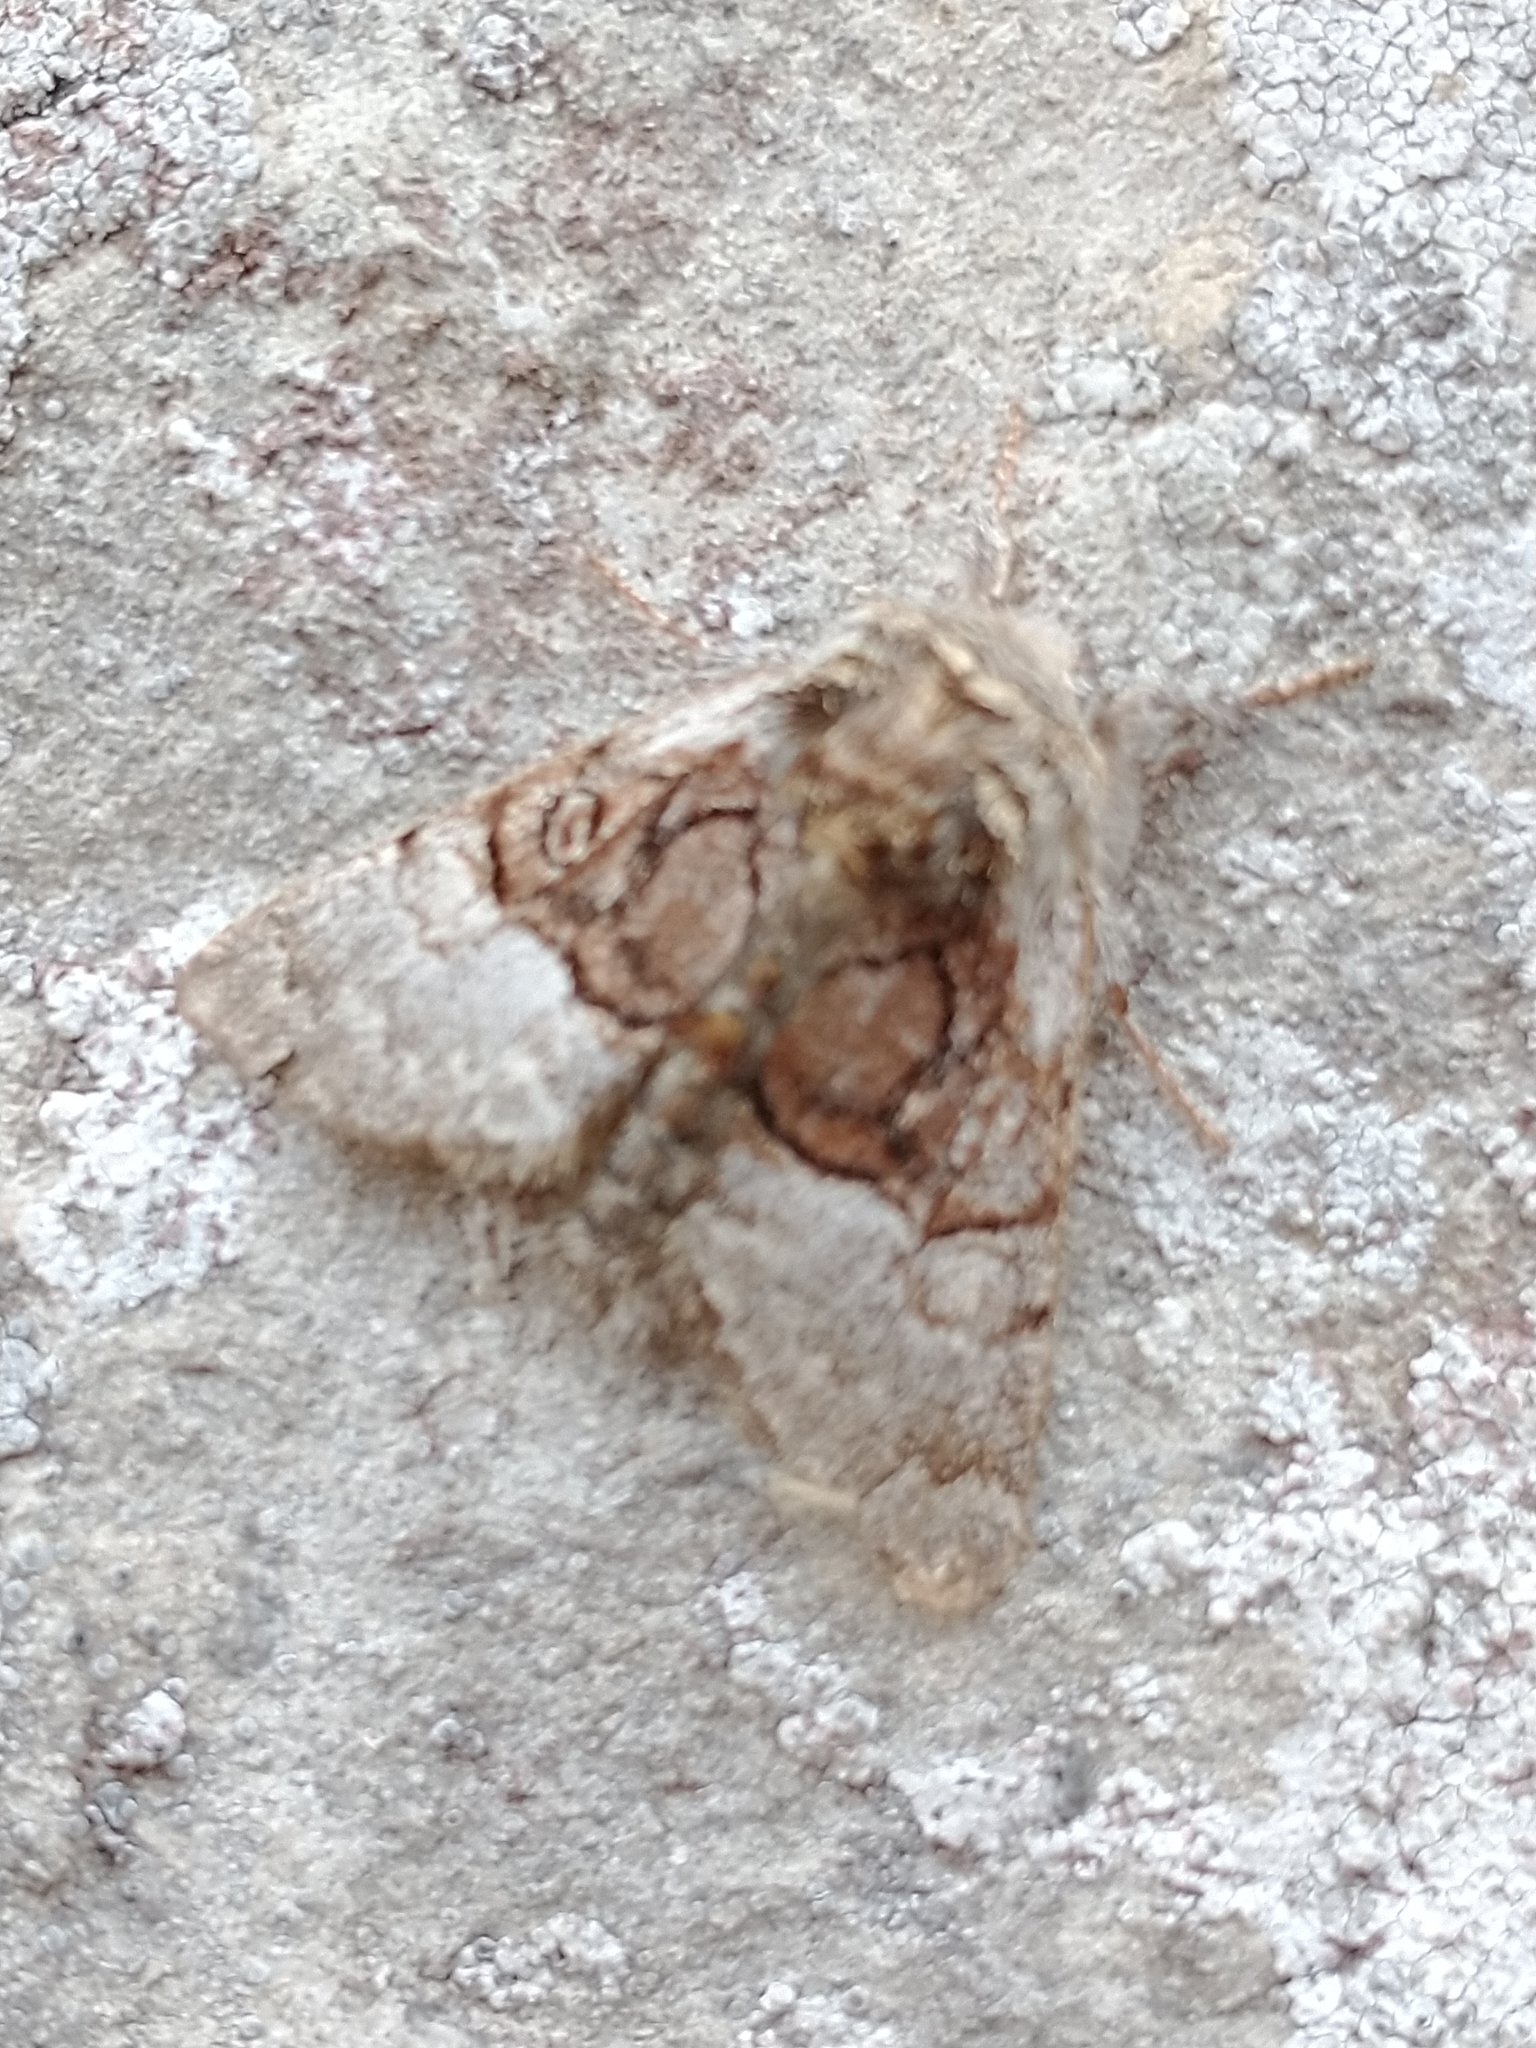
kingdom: Animalia
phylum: Arthropoda
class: Insecta
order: Lepidoptera
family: Noctuidae
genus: Colocasia
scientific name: Colocasia coryli
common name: Nut-tree tussock
